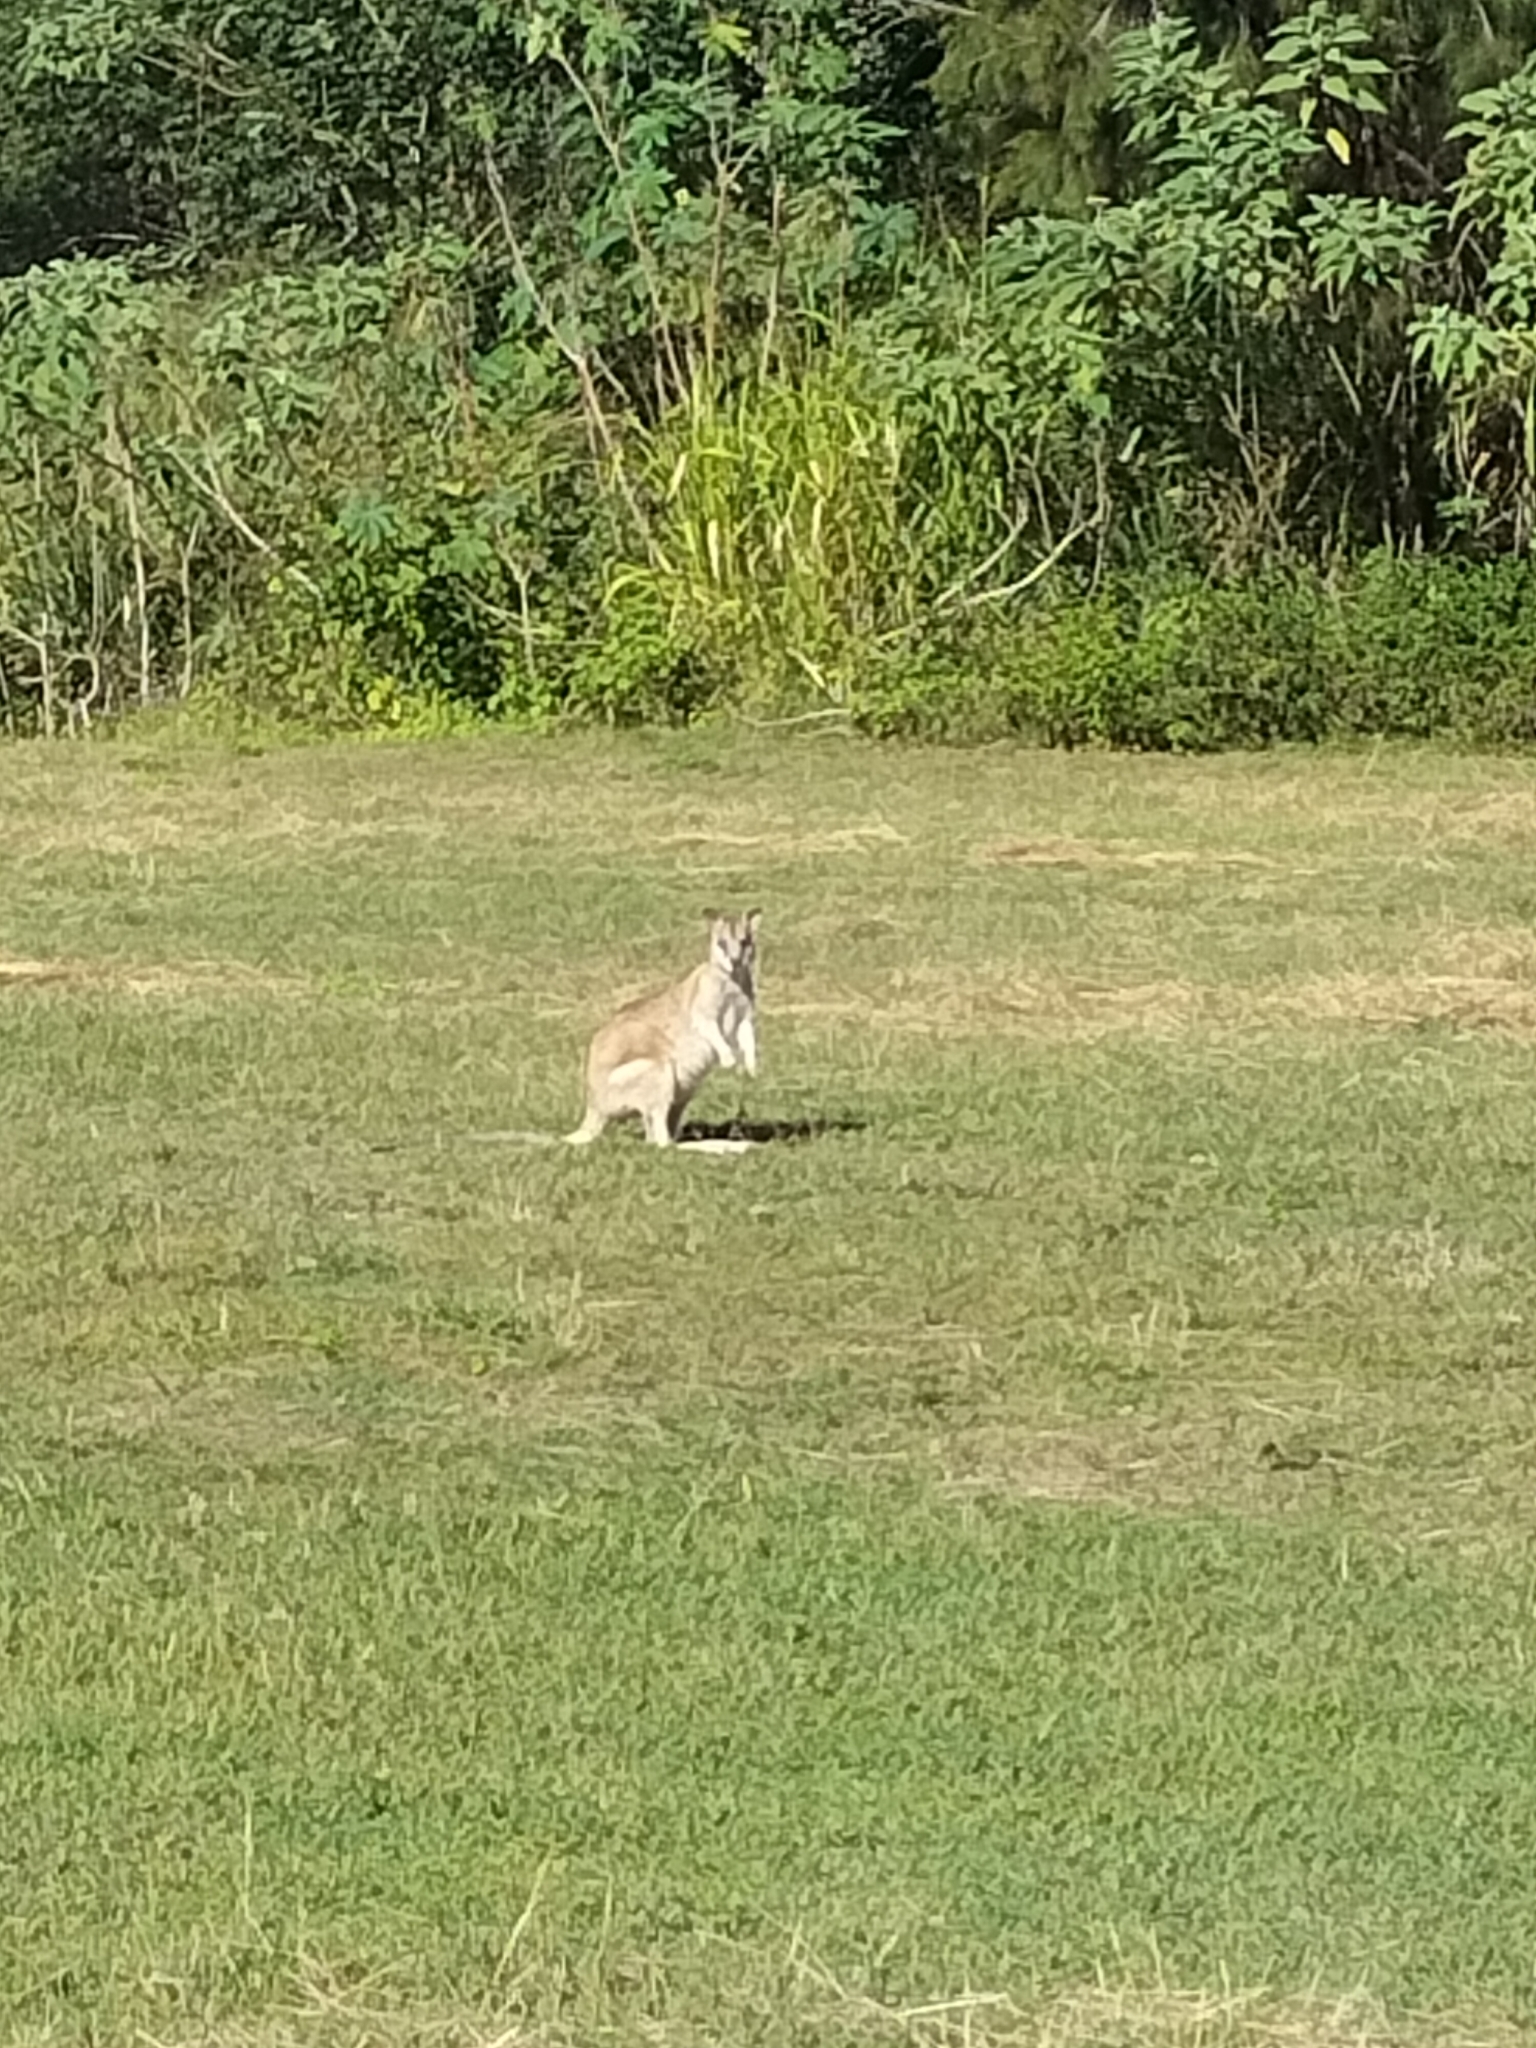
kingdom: Animalia
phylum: Chordata
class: Mammalia
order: Diprotodontia
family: Macropodidae
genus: Macropus
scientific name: Macropus agilis
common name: Agile wallaby
